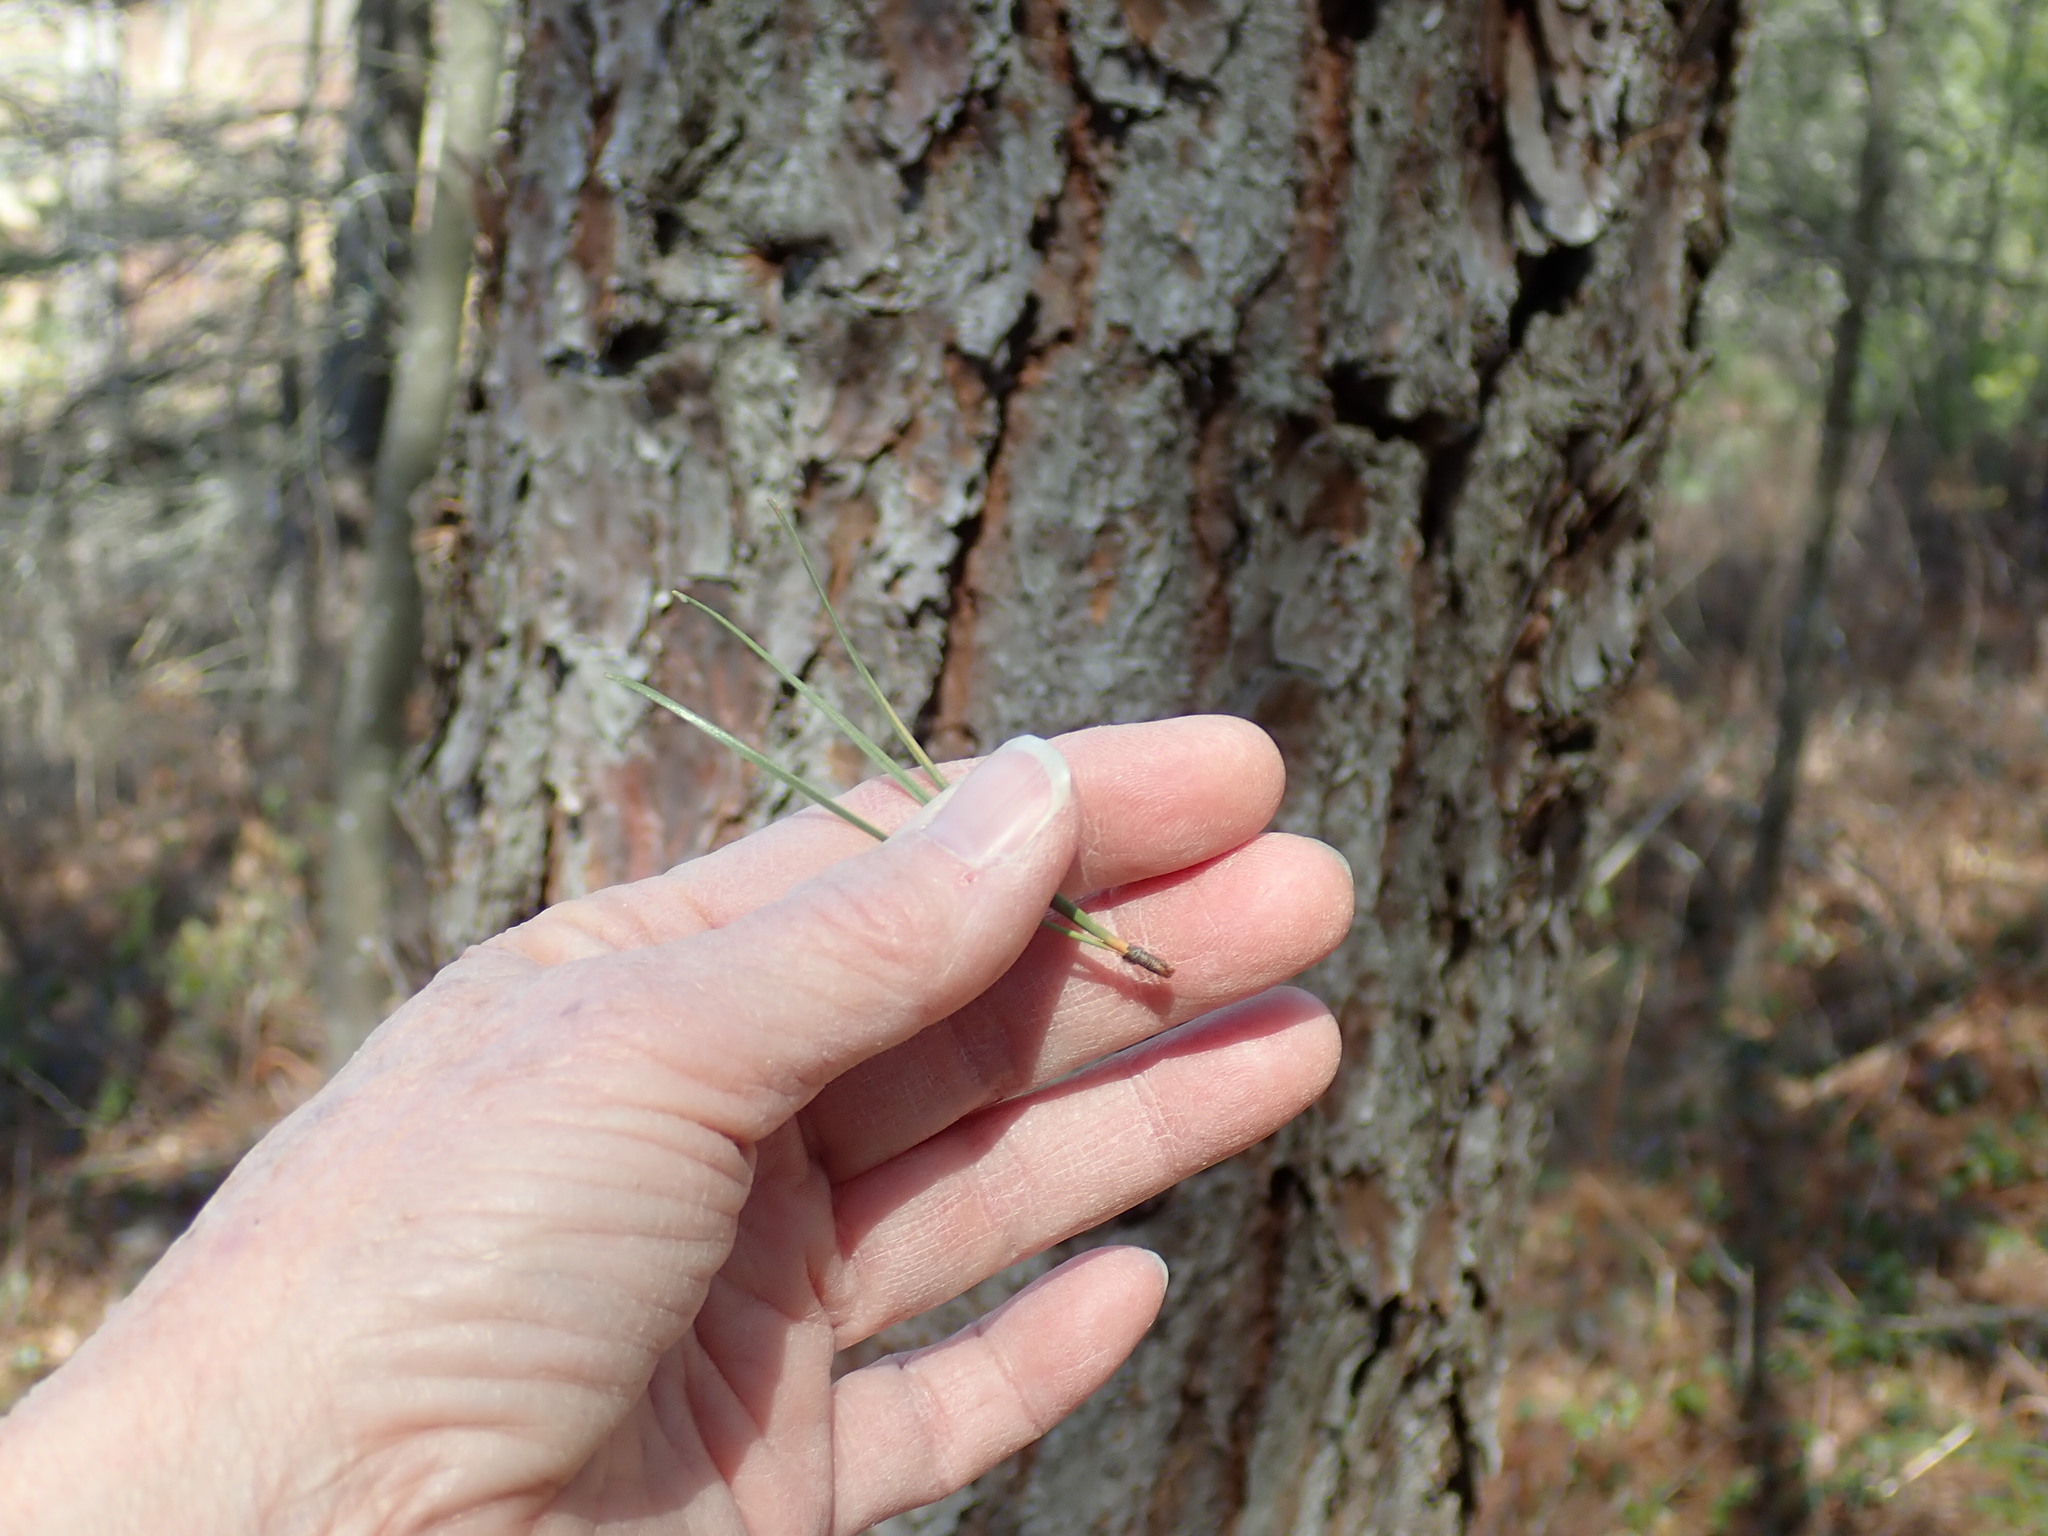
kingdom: Plantae
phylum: Tracheophyta
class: Pinopsida
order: Pinales
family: Pinaceae
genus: Pinus
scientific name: Pinus rigida
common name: Pitch pine
